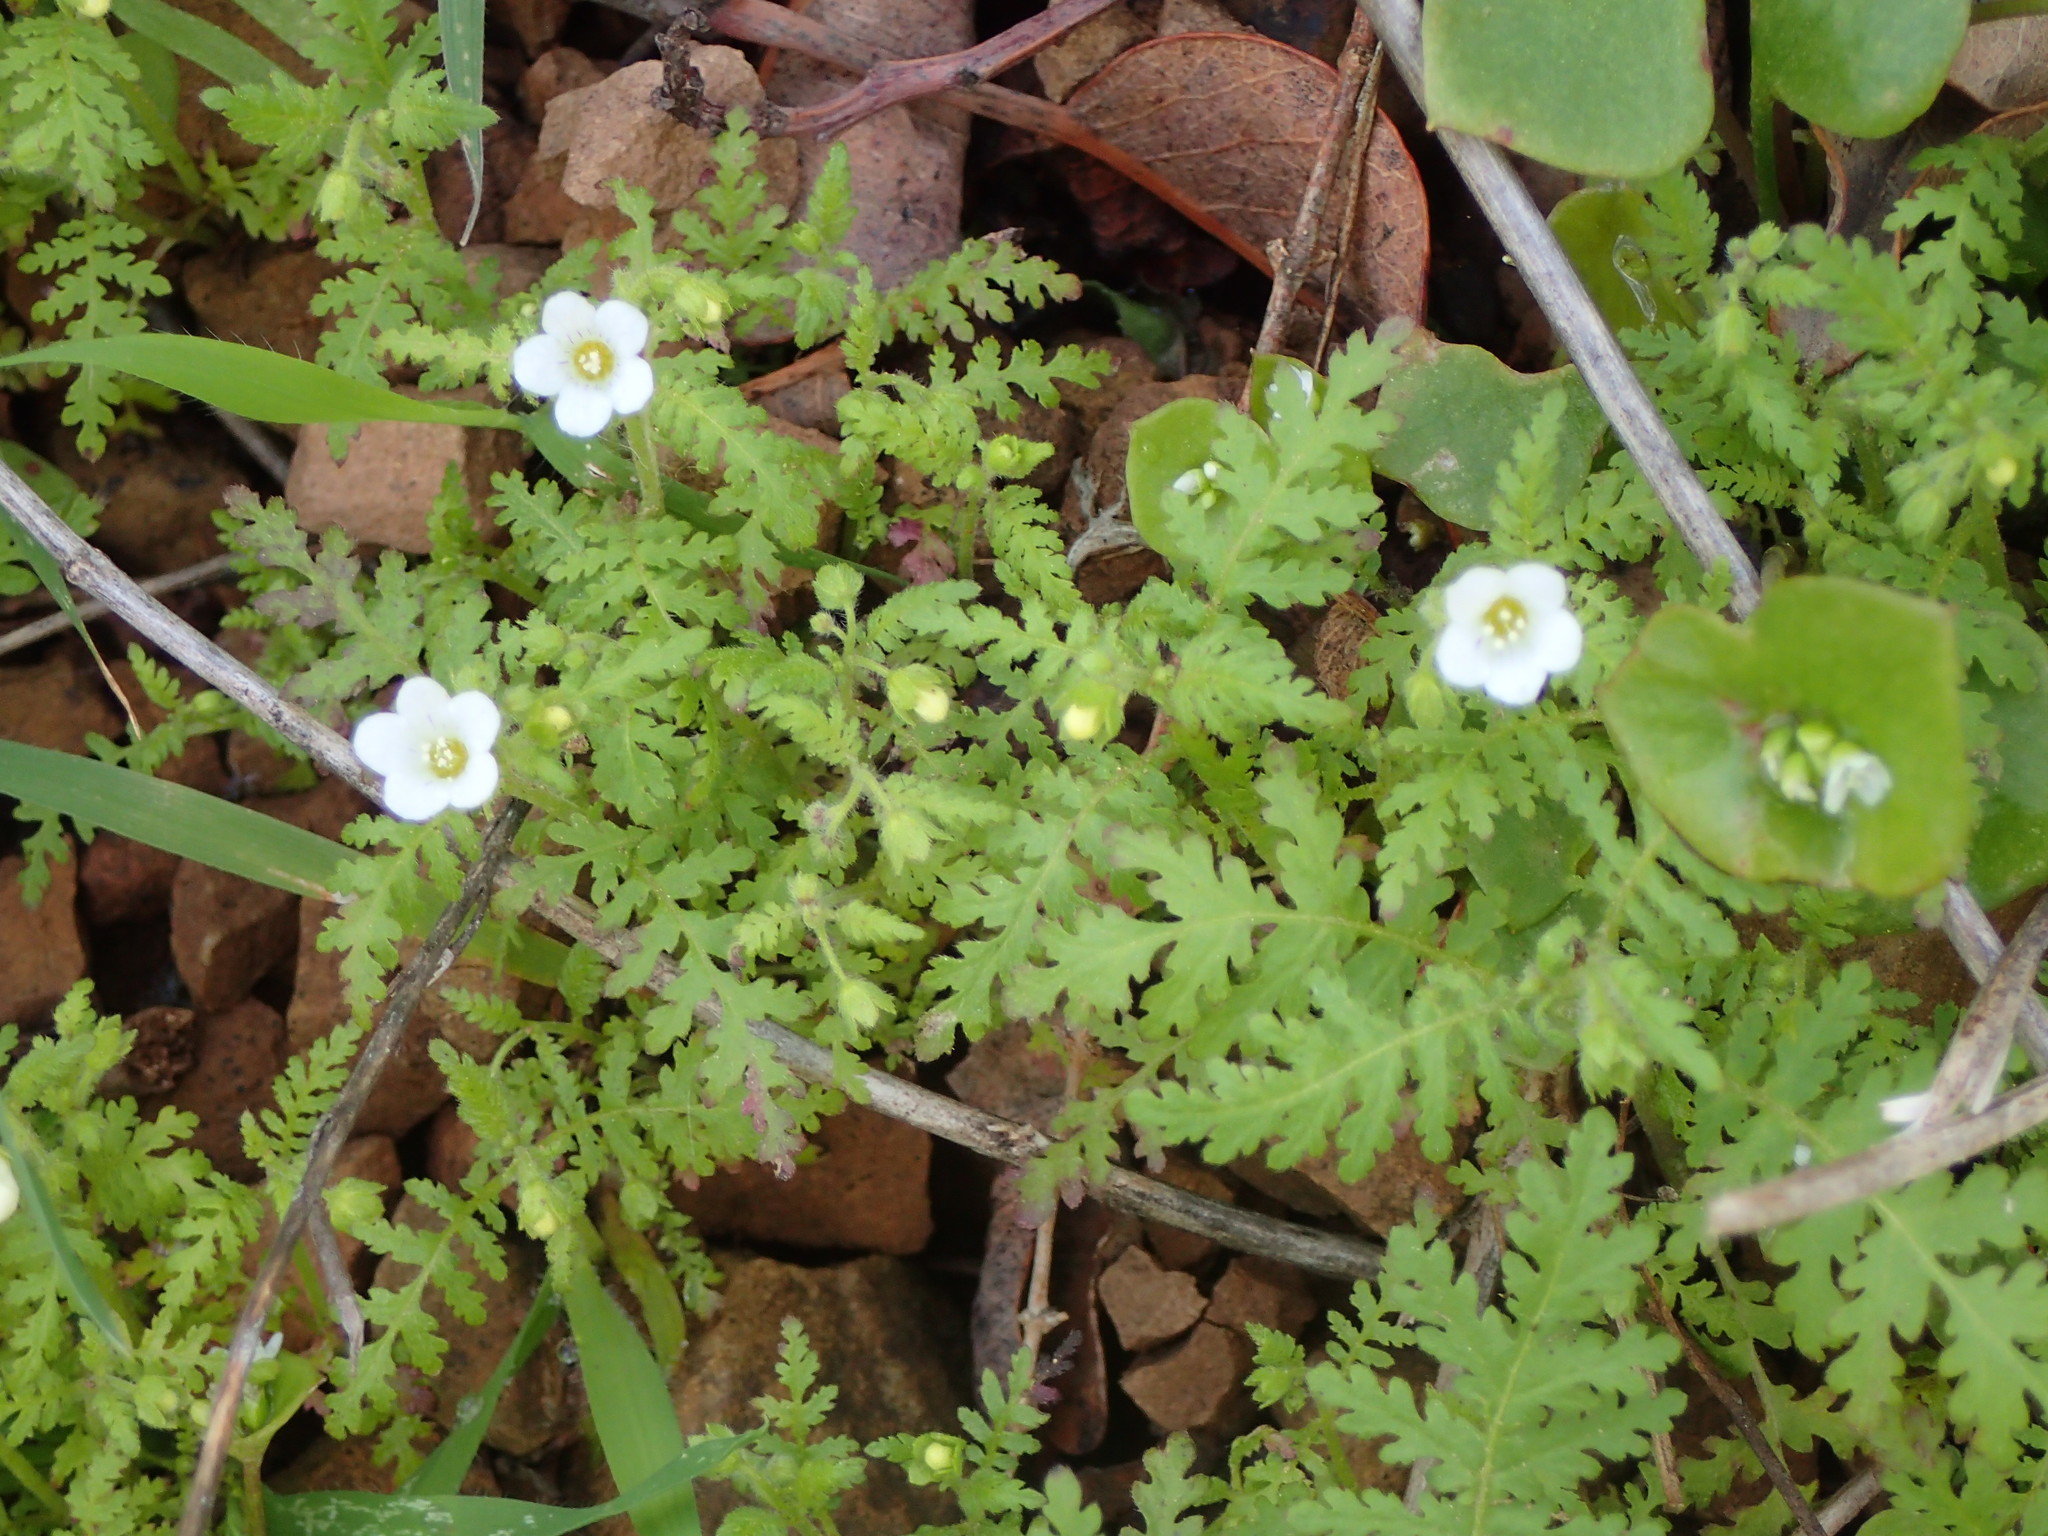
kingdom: Plantae
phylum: Tracheophyta
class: Magnoliopsida
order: Boraginales
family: Hydrophyllaceae
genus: Eucrypta
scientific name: Eucrypta chrysanthemifolia
